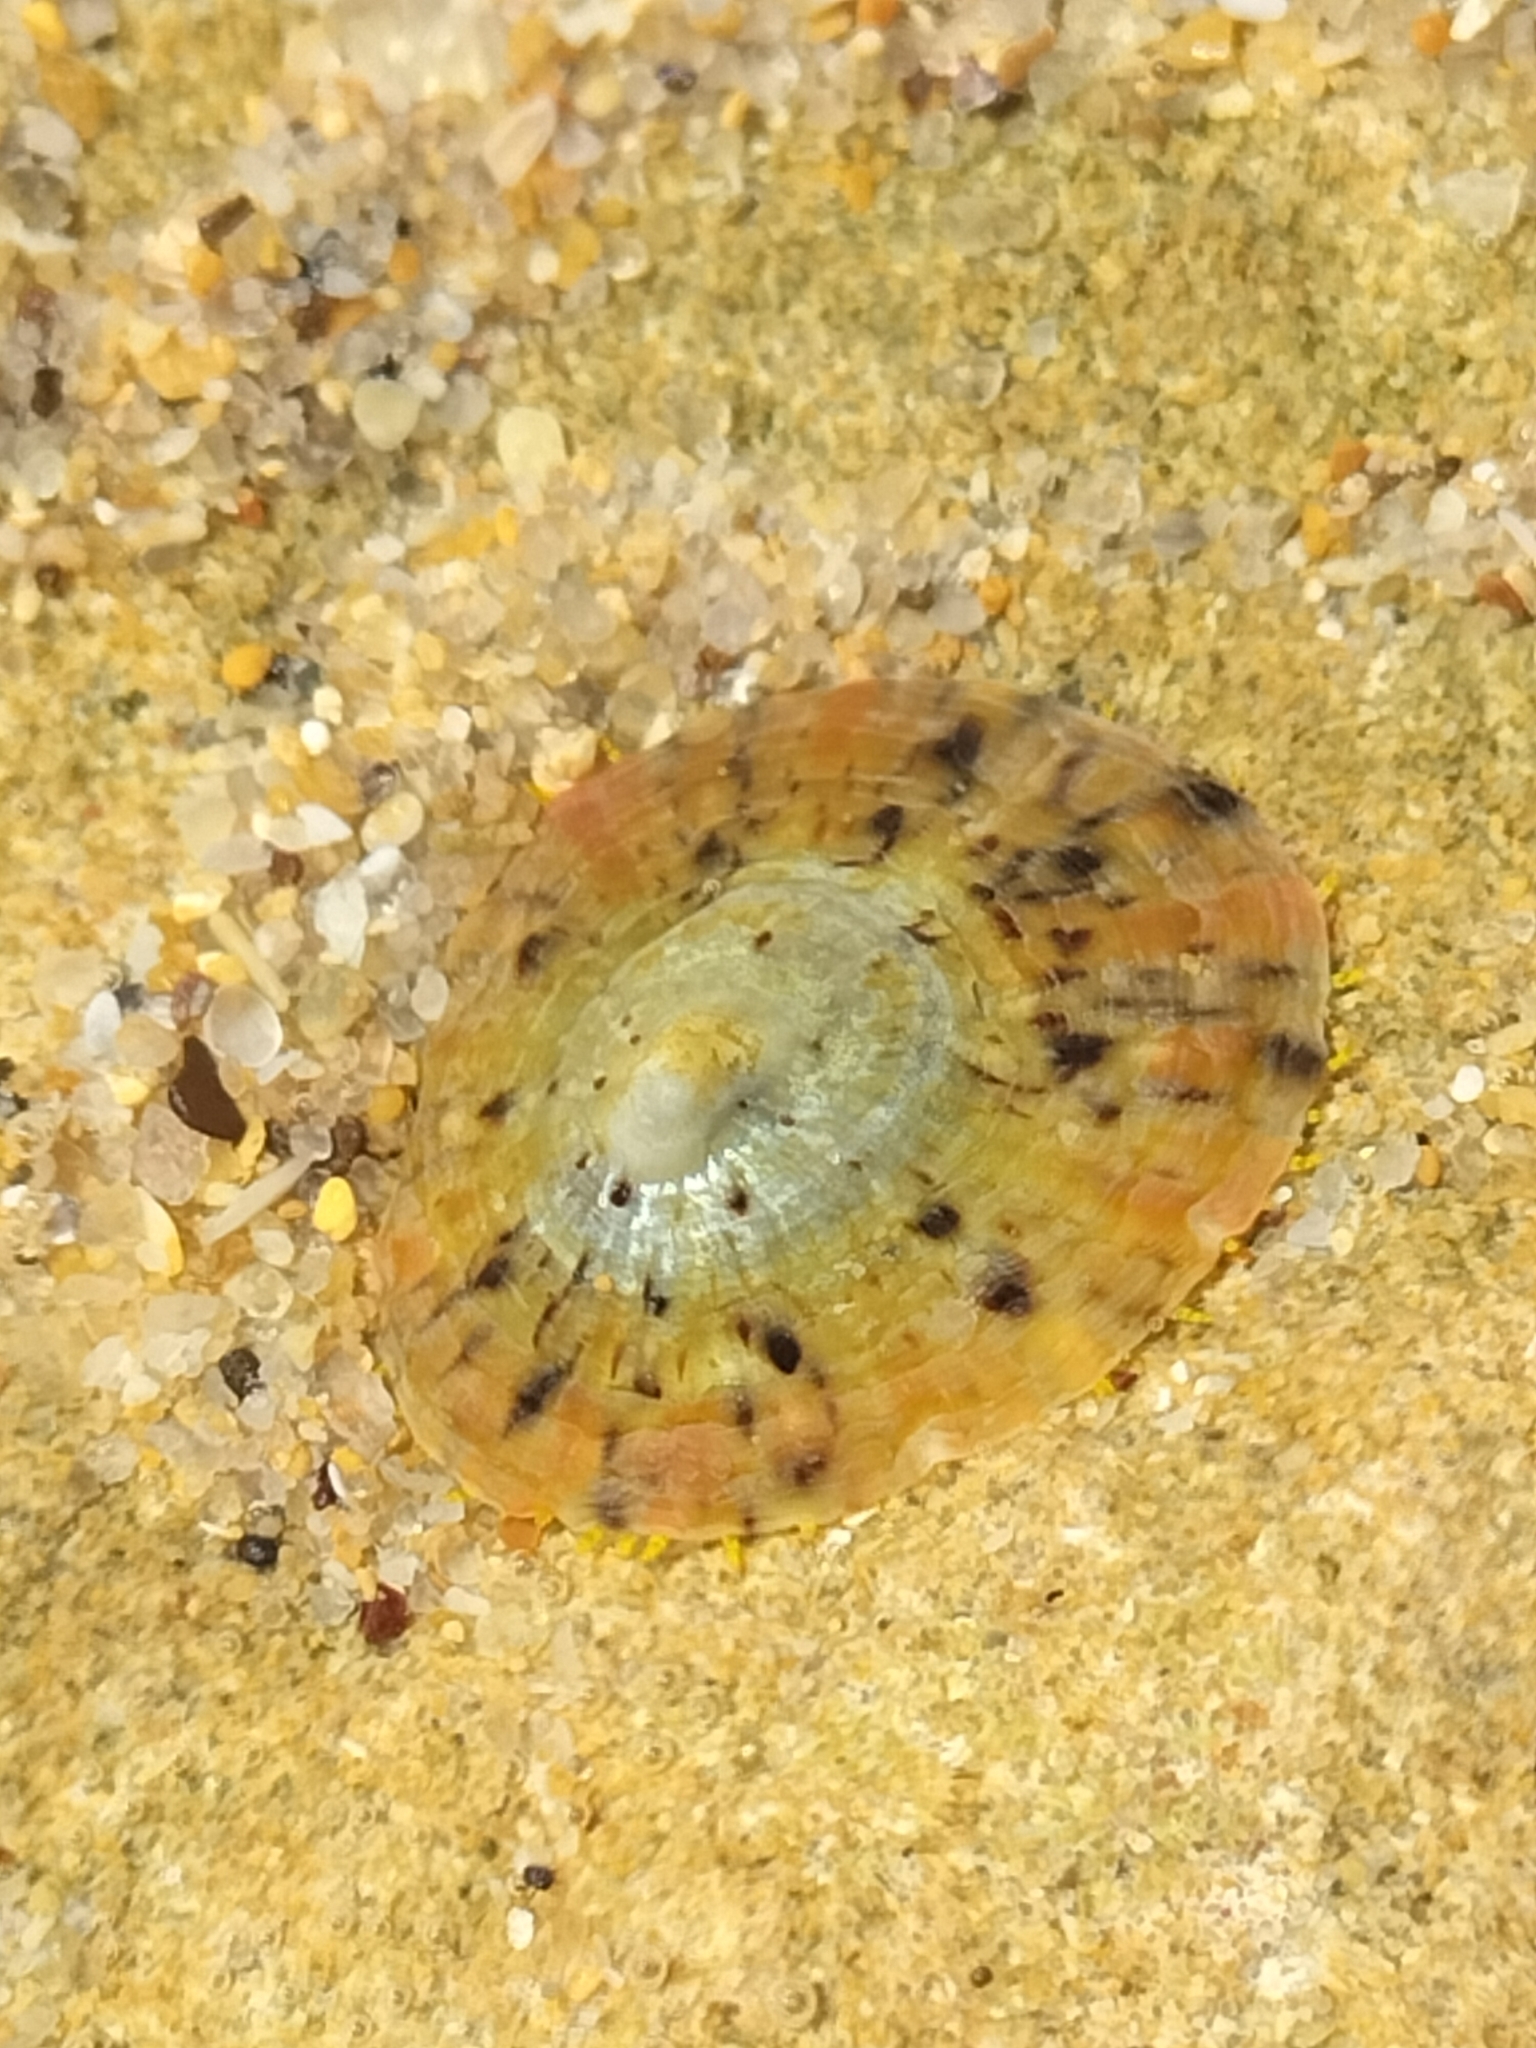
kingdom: Animalia
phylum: Mollusca
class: Gastropoda
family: Nacellidae
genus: Cellana
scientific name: Cellana tramoserica
